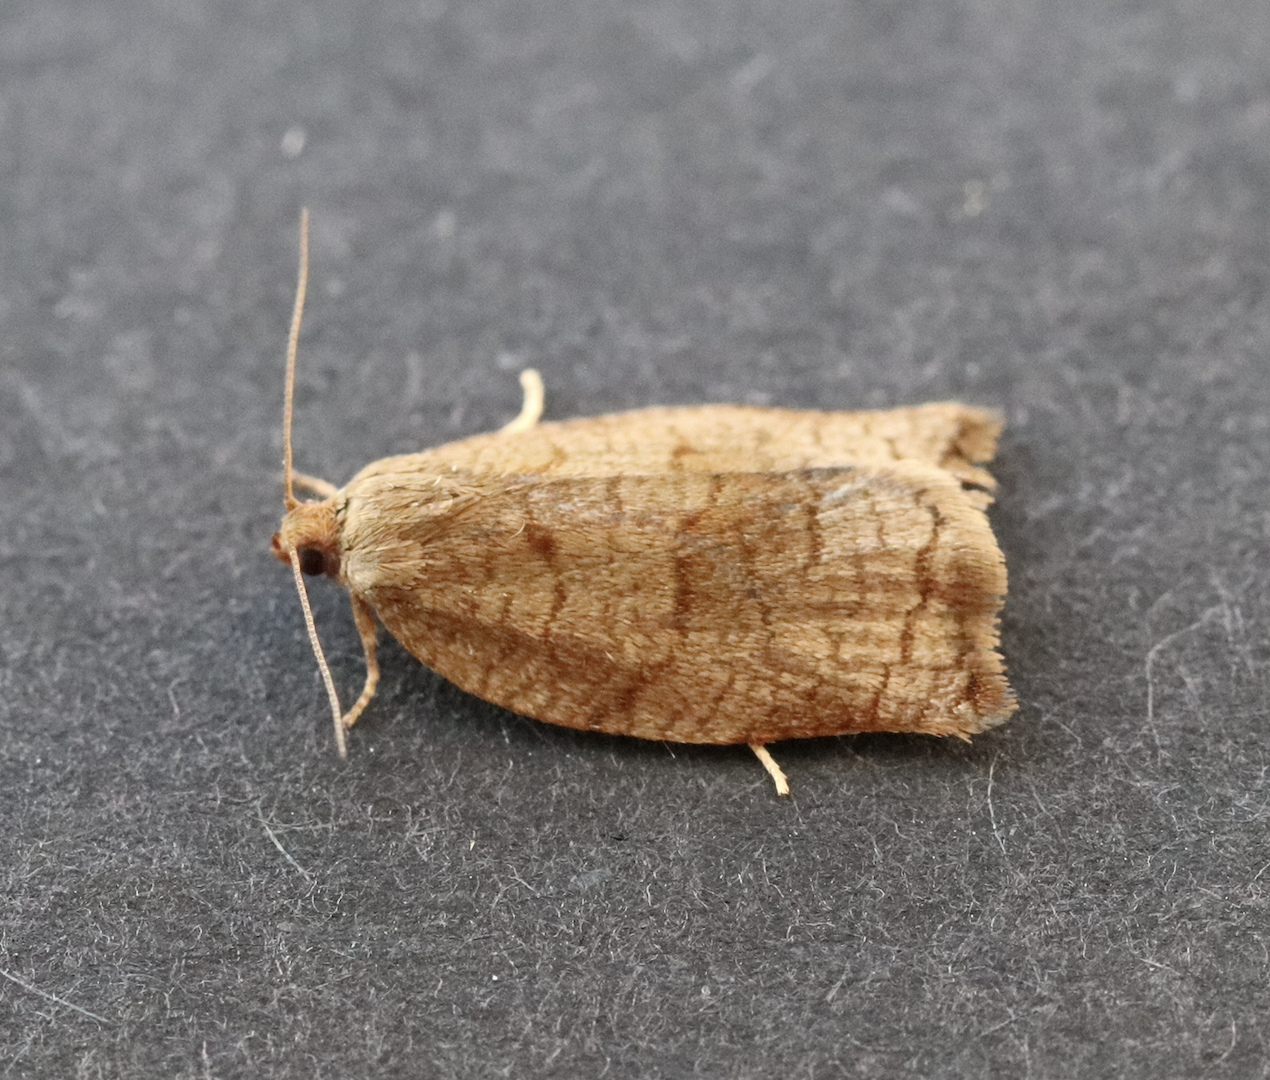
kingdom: Animalia
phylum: Arthropoda
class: Insecta
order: Lepidoptera
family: Tortricidae
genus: Archips
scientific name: Archips rosana
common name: Rose tortrix
